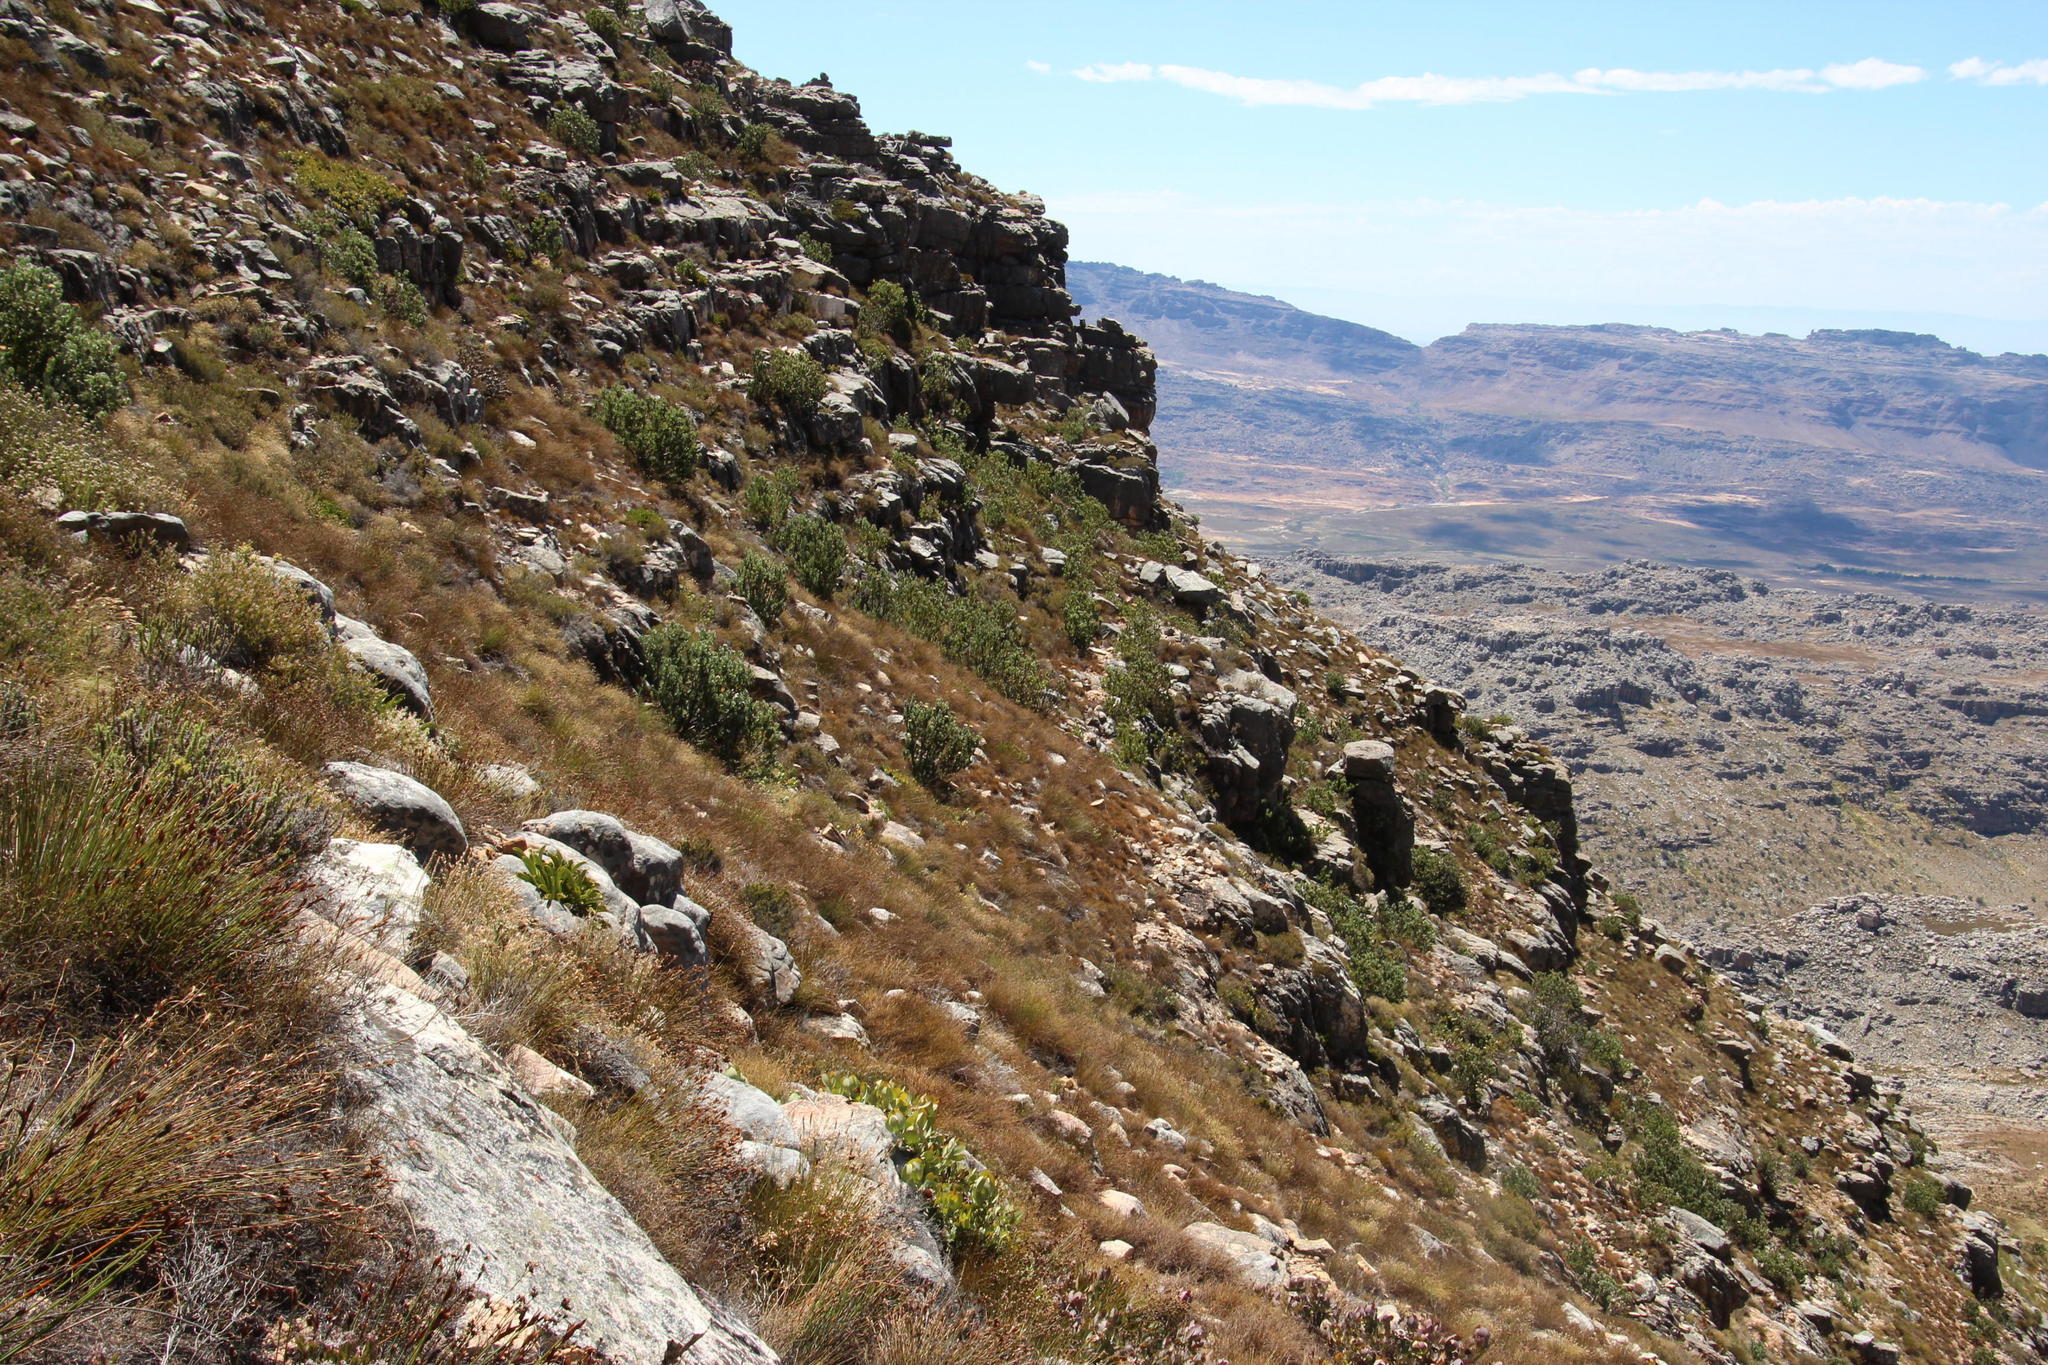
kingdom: Plantae
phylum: Tracheophyta
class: Magnoliopsida
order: Proteales
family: Proteaceae
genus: Protea
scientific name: Protea punctata
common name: Water sugarbush
